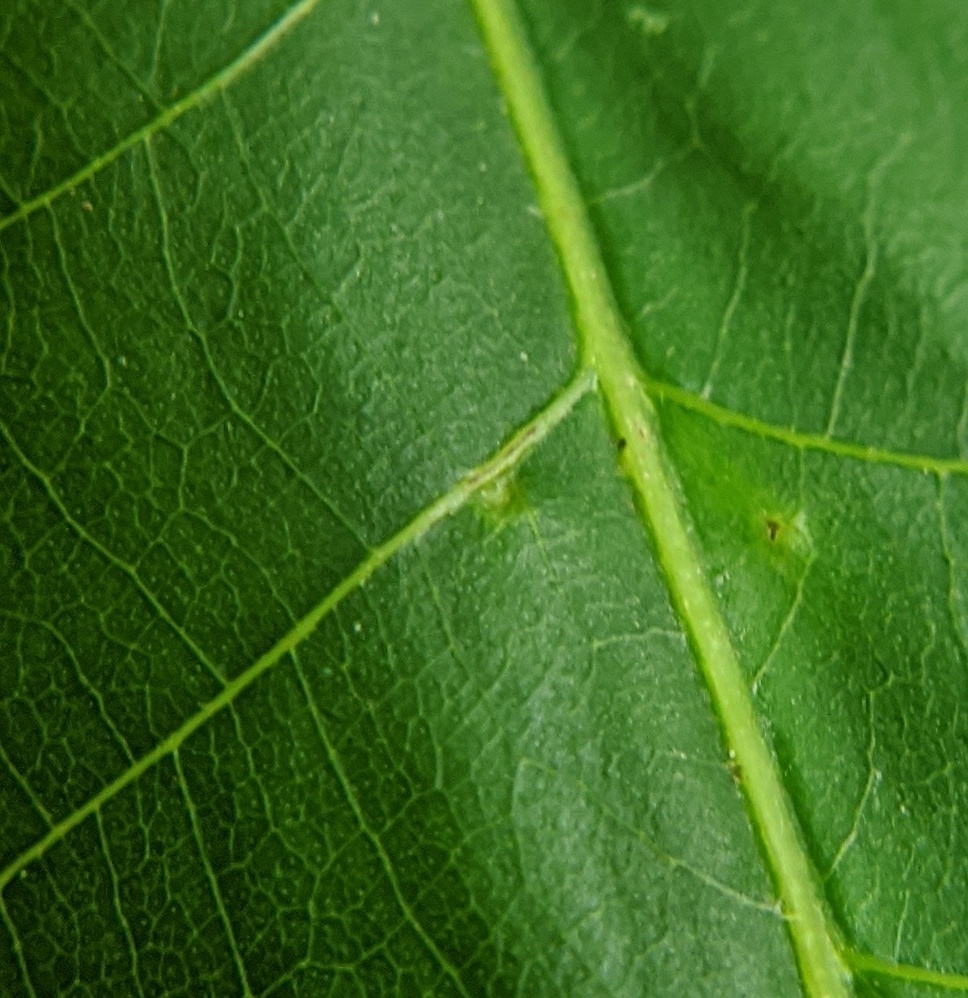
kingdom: Animalia
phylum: Arthropoda
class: Insecta
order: Diptera
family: Cecidomyiidae
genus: Caryomyia
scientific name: Caryomyia cilidolium
